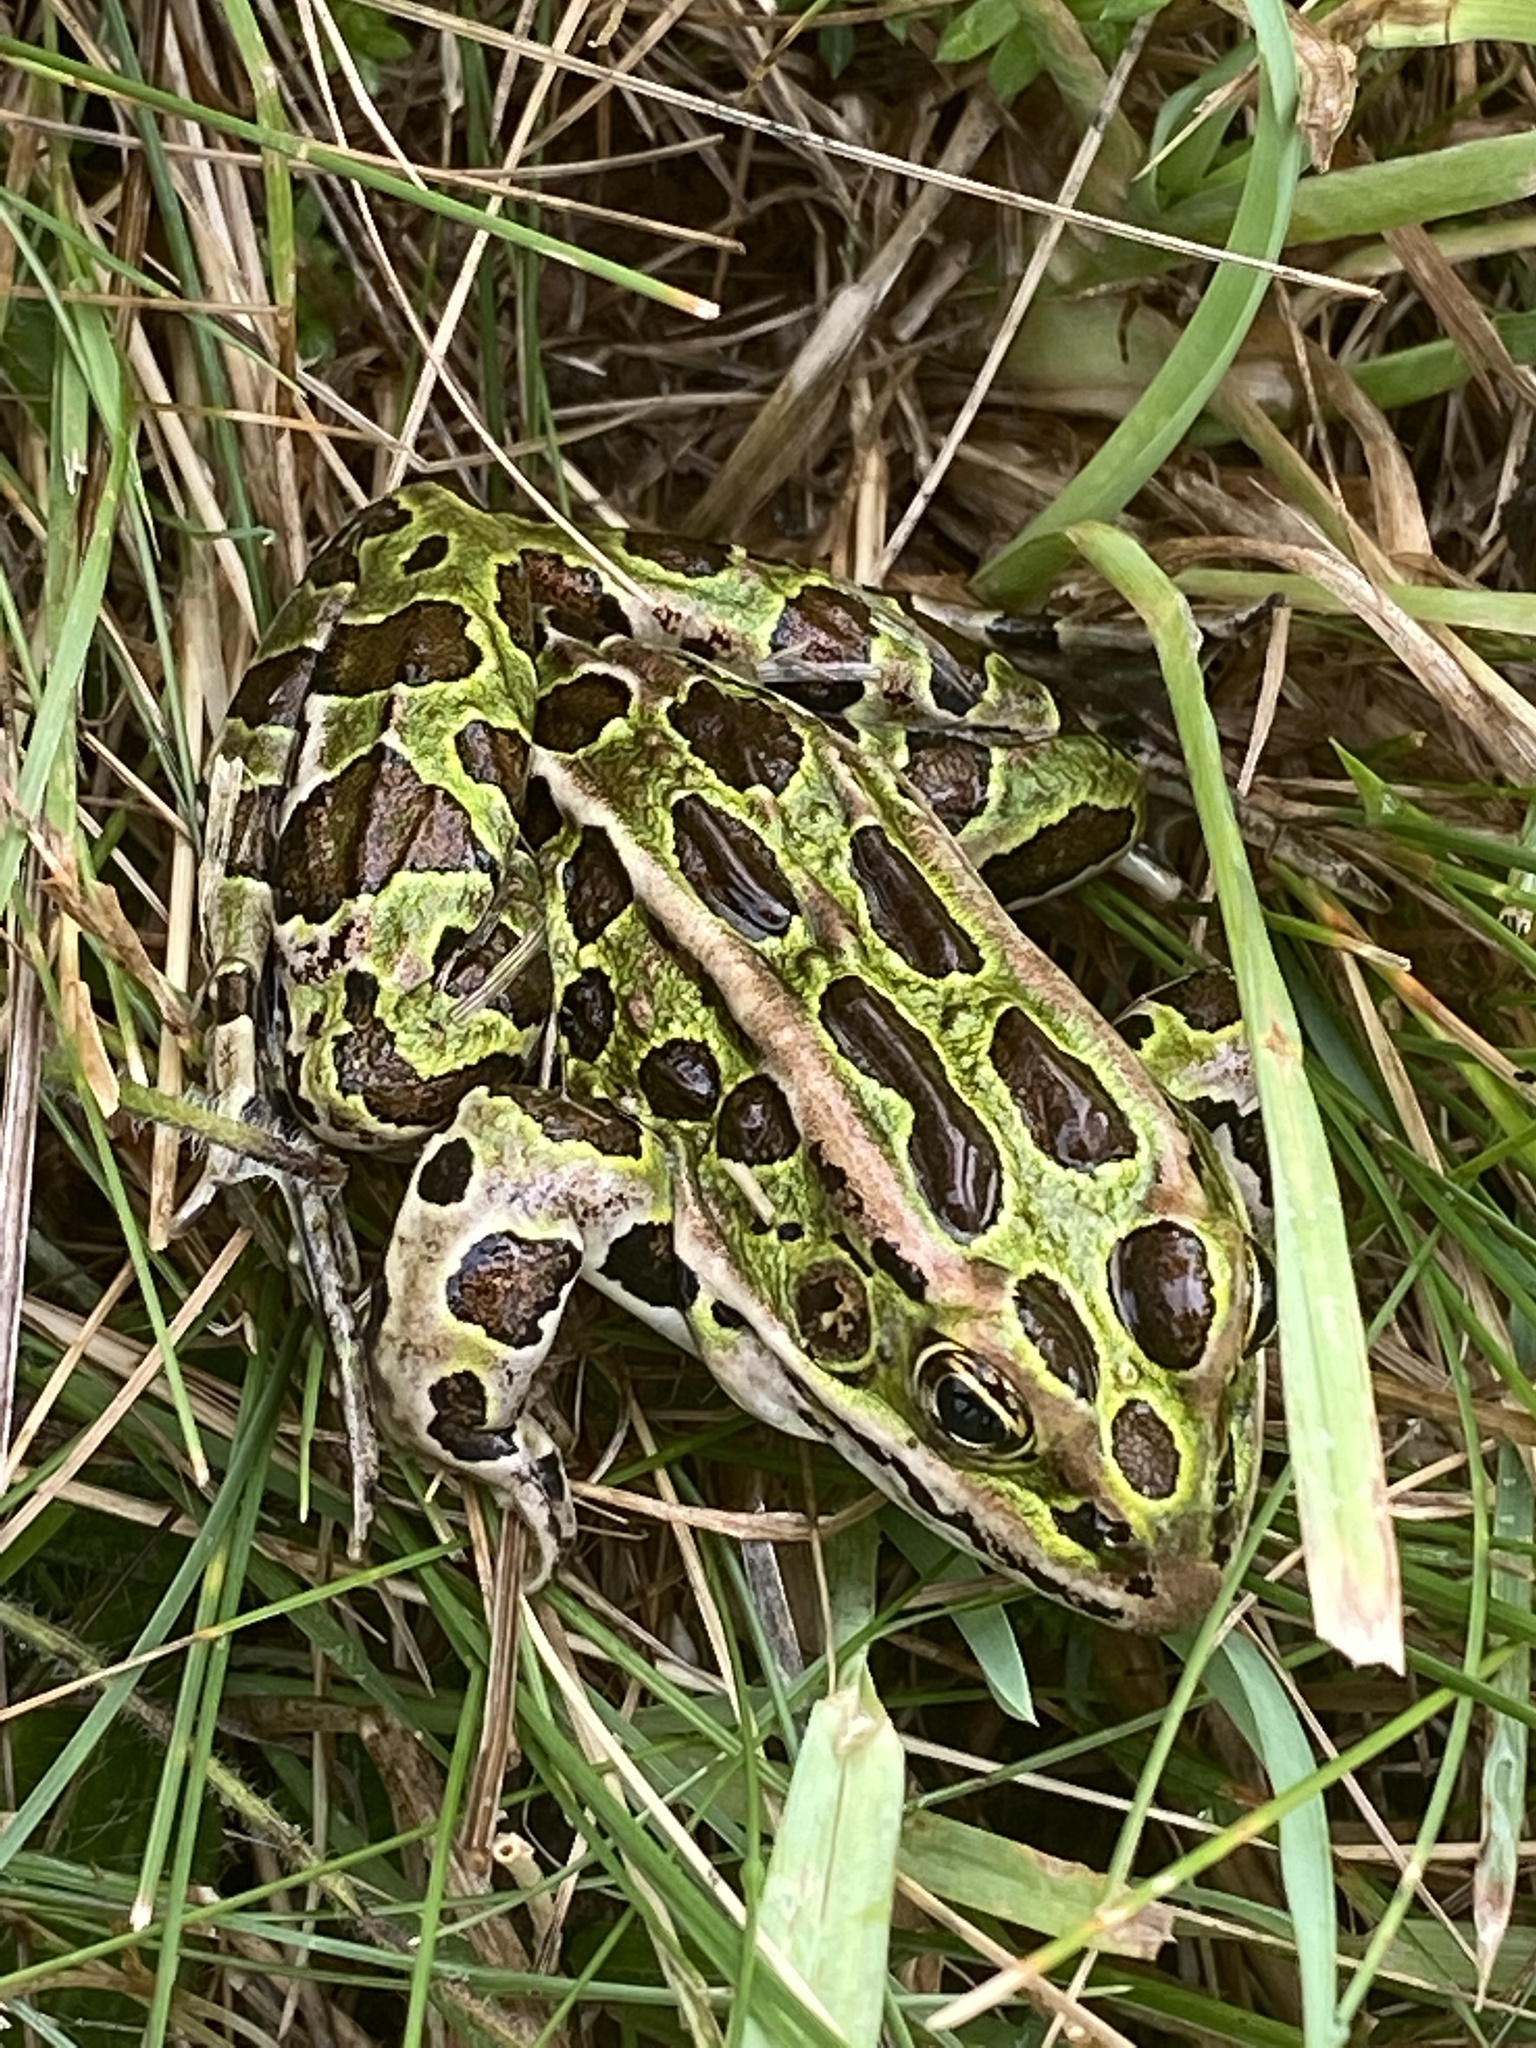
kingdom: Animalia
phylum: Chordata
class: Amphibia
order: Anura
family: Ranidae
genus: Lithobates
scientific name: Lithobates pipiens
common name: Northern leopard frog
